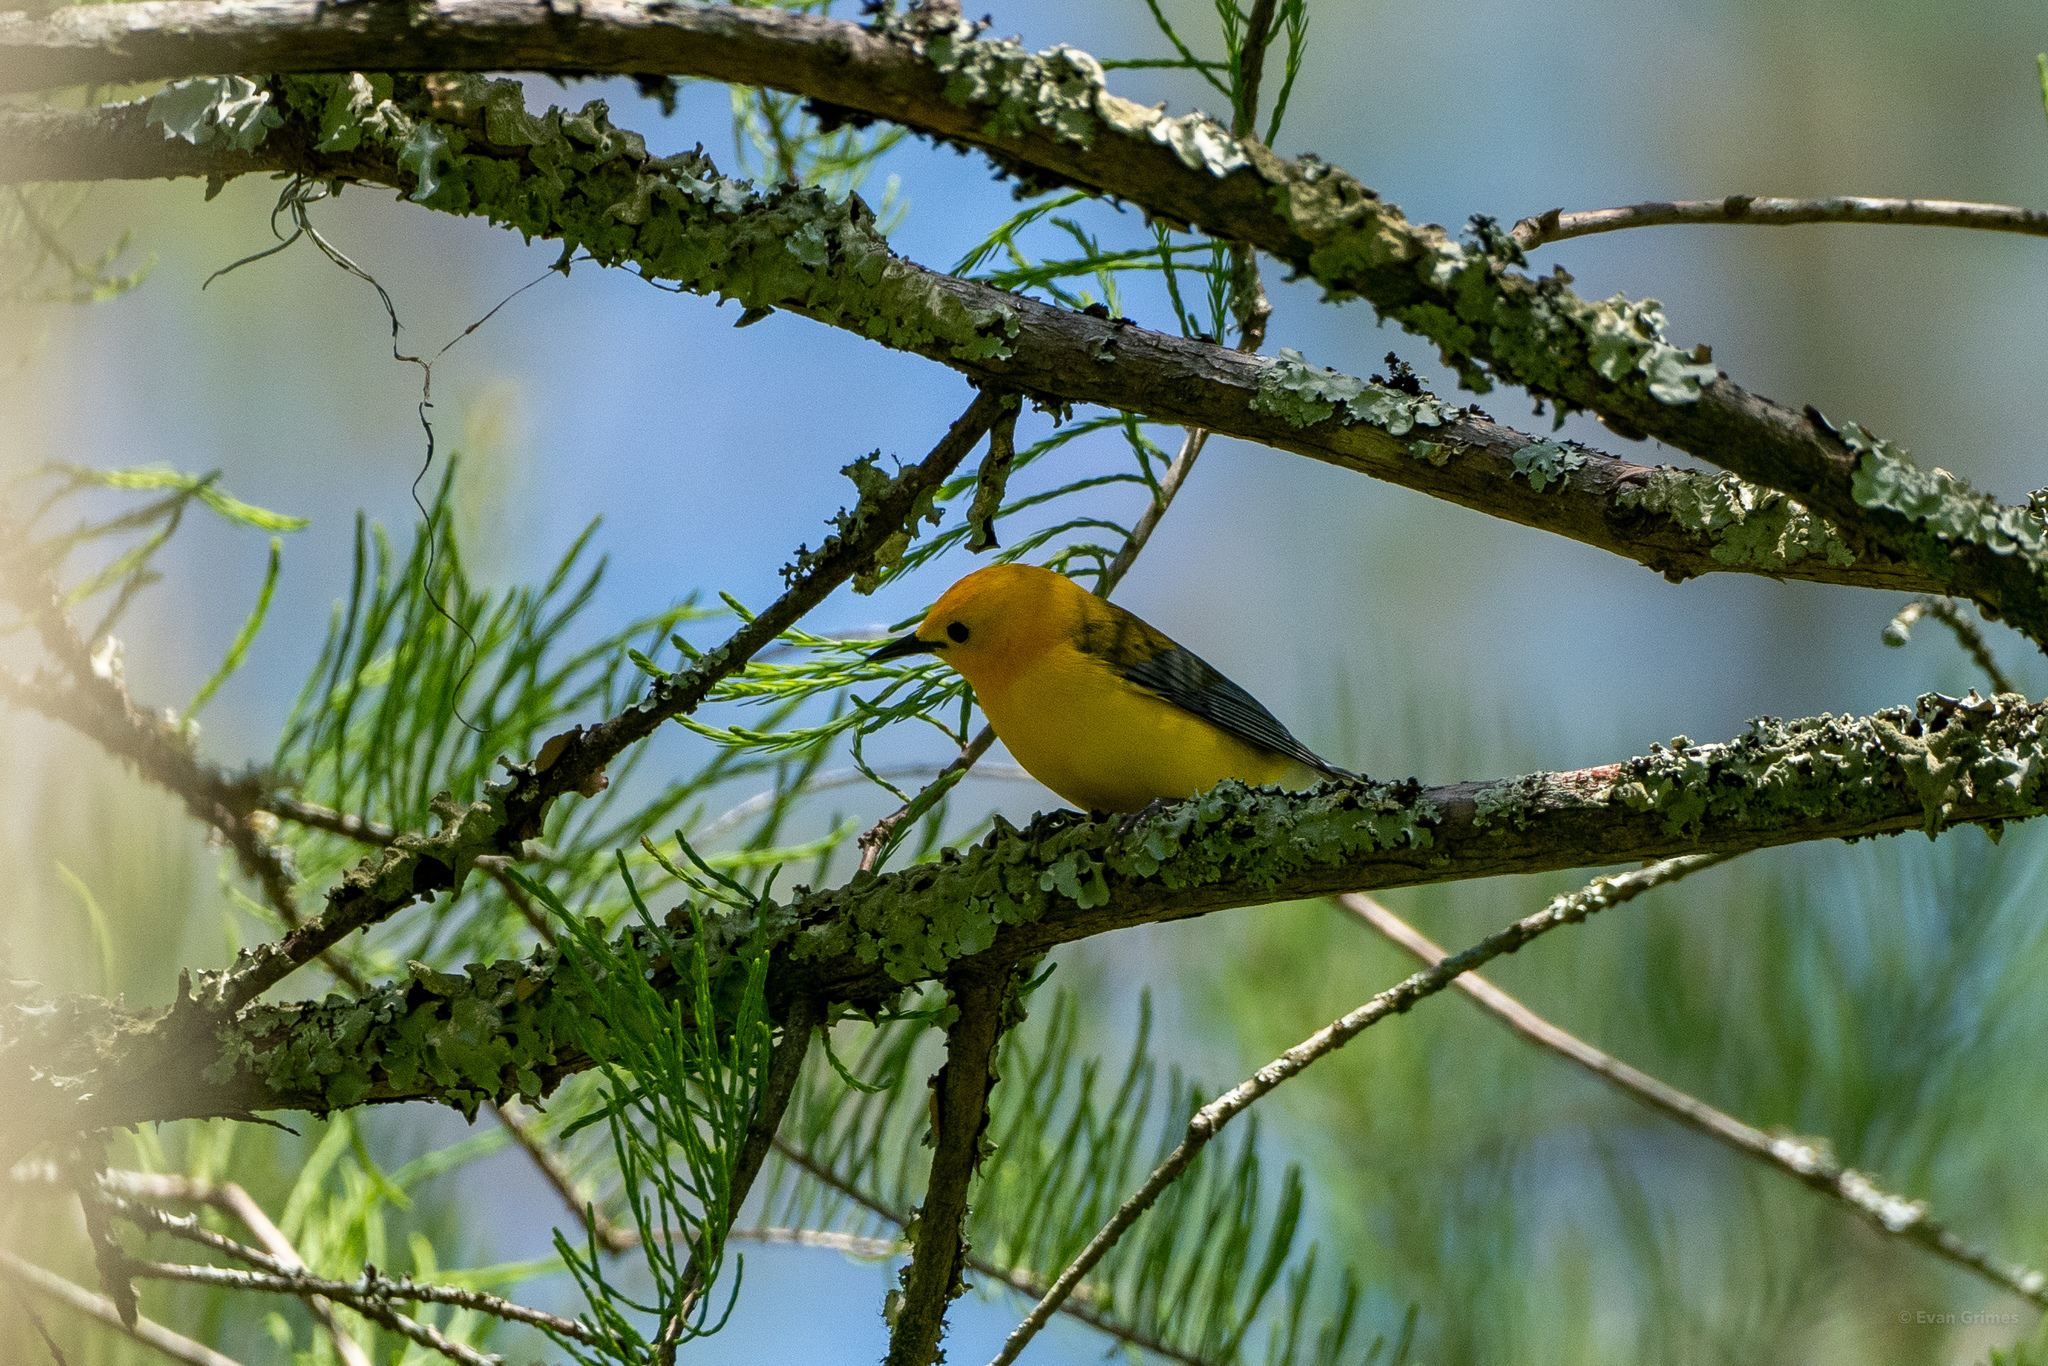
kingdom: Animalia
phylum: Chordata
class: Aves
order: Passeriformes
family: Parulidae
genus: Protonotaria
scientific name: Protonotaria citrea
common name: Prothonotary warbler
